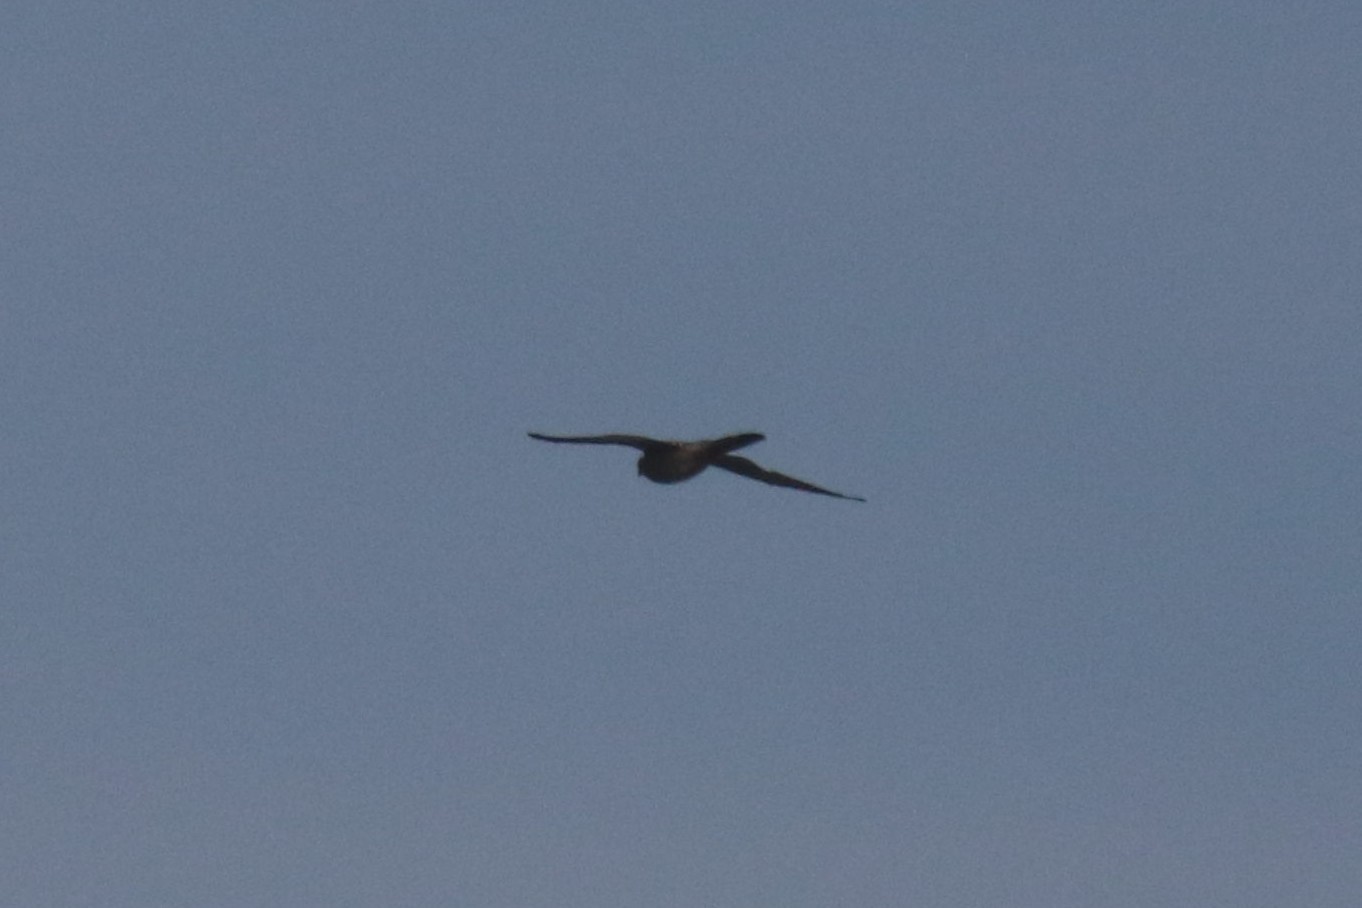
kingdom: Animalia
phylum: Chordata
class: Aves
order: Falconiformes
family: Falconidae
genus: Falco
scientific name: Falco tinnunculus
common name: Common kestrel
